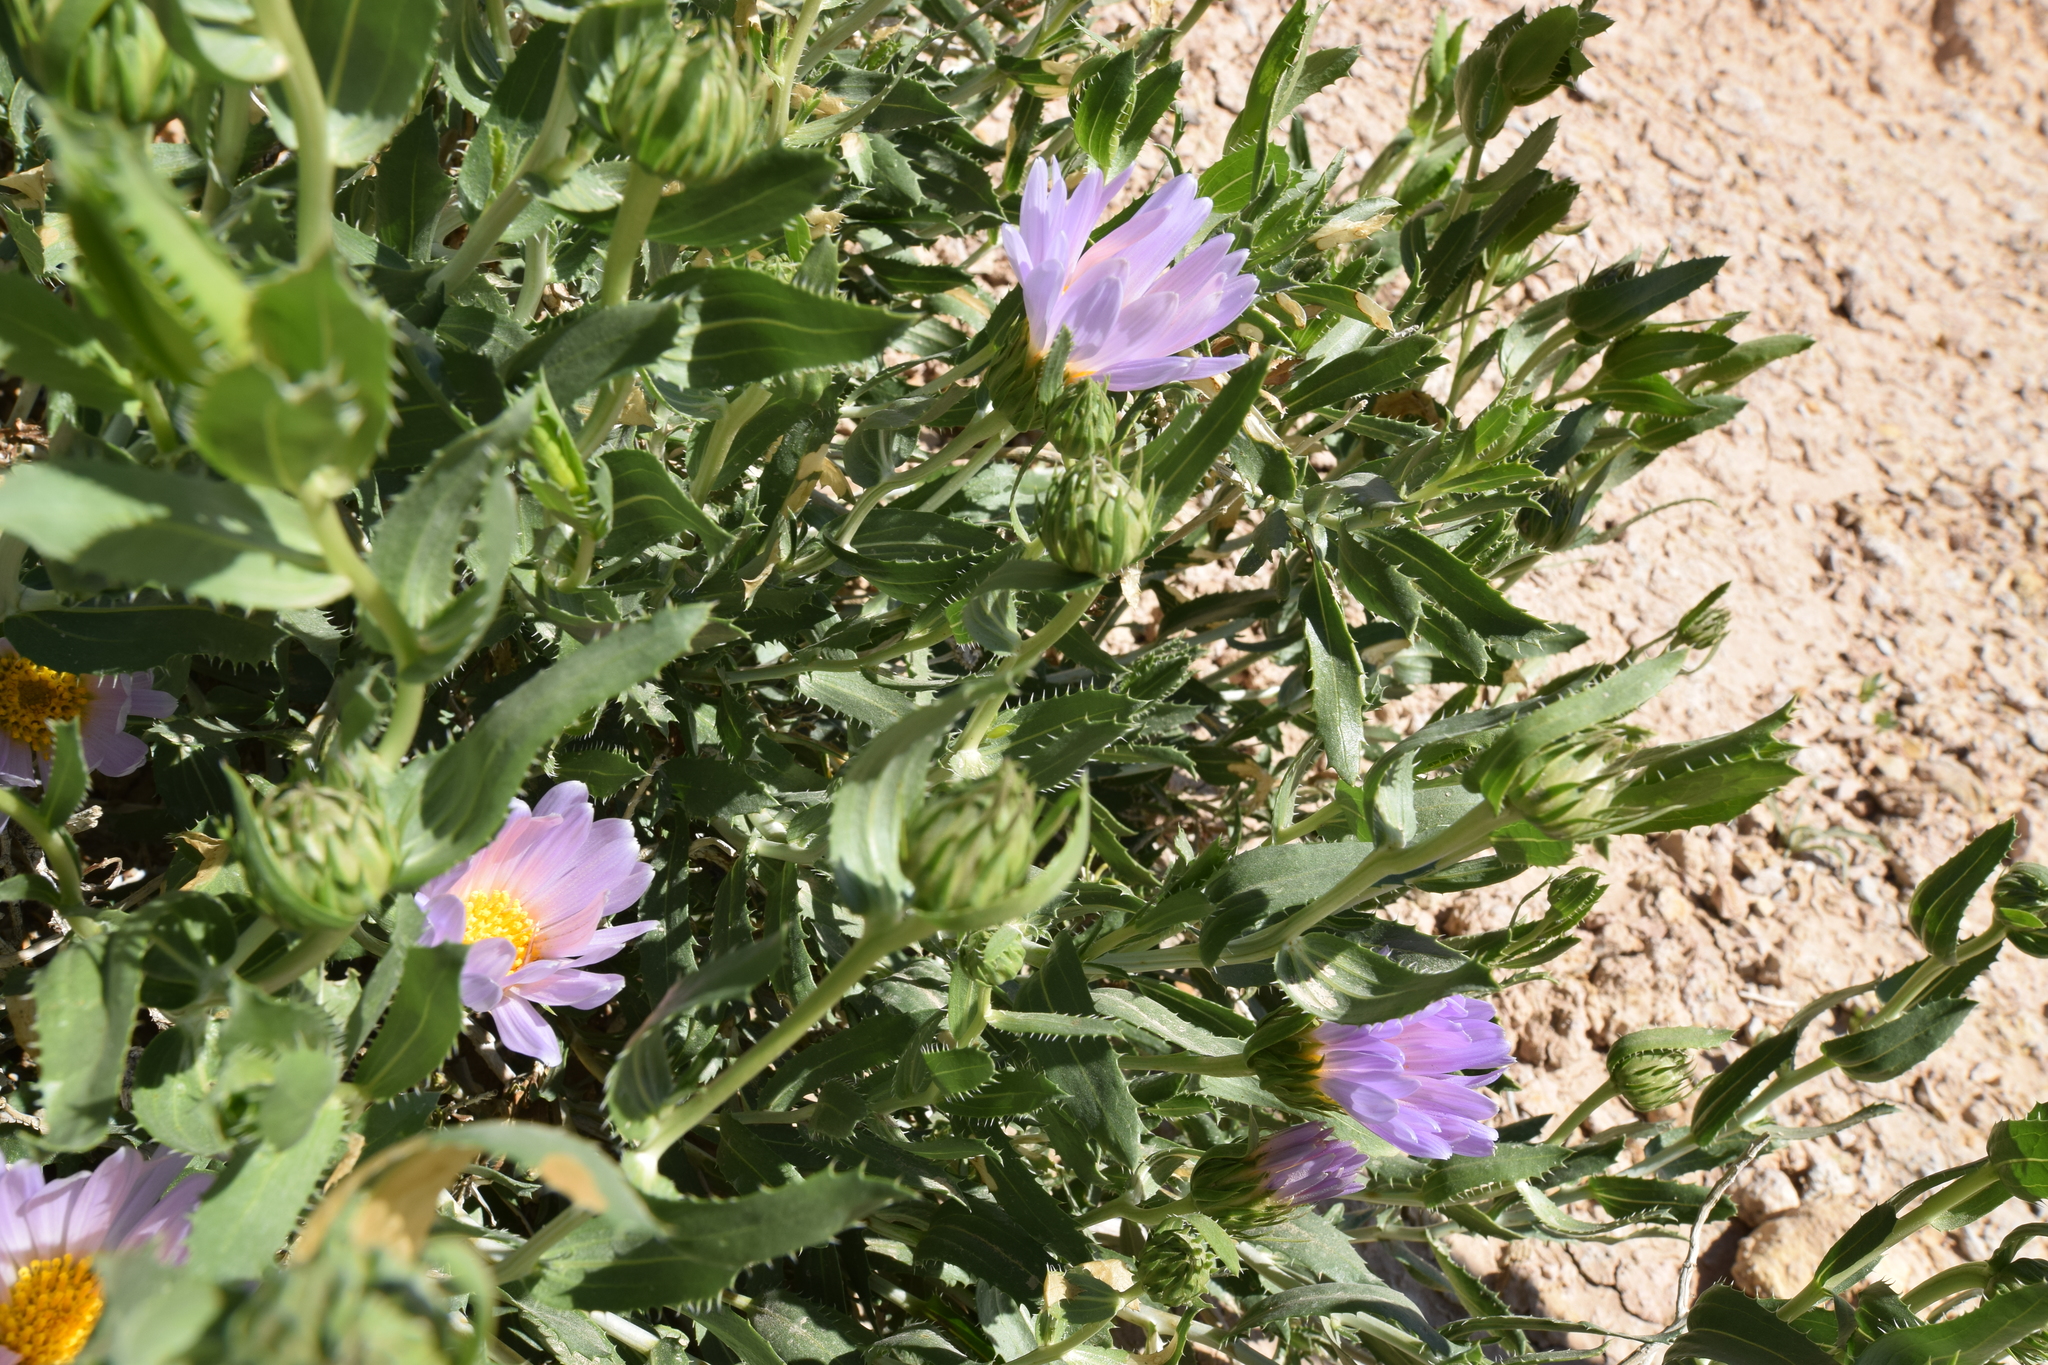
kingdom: Plantae
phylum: Tracheophyta
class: Magnoliopsida
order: Asterales
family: Asteraceae
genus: Xylorhiza
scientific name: Xylorhiza orcuttii
